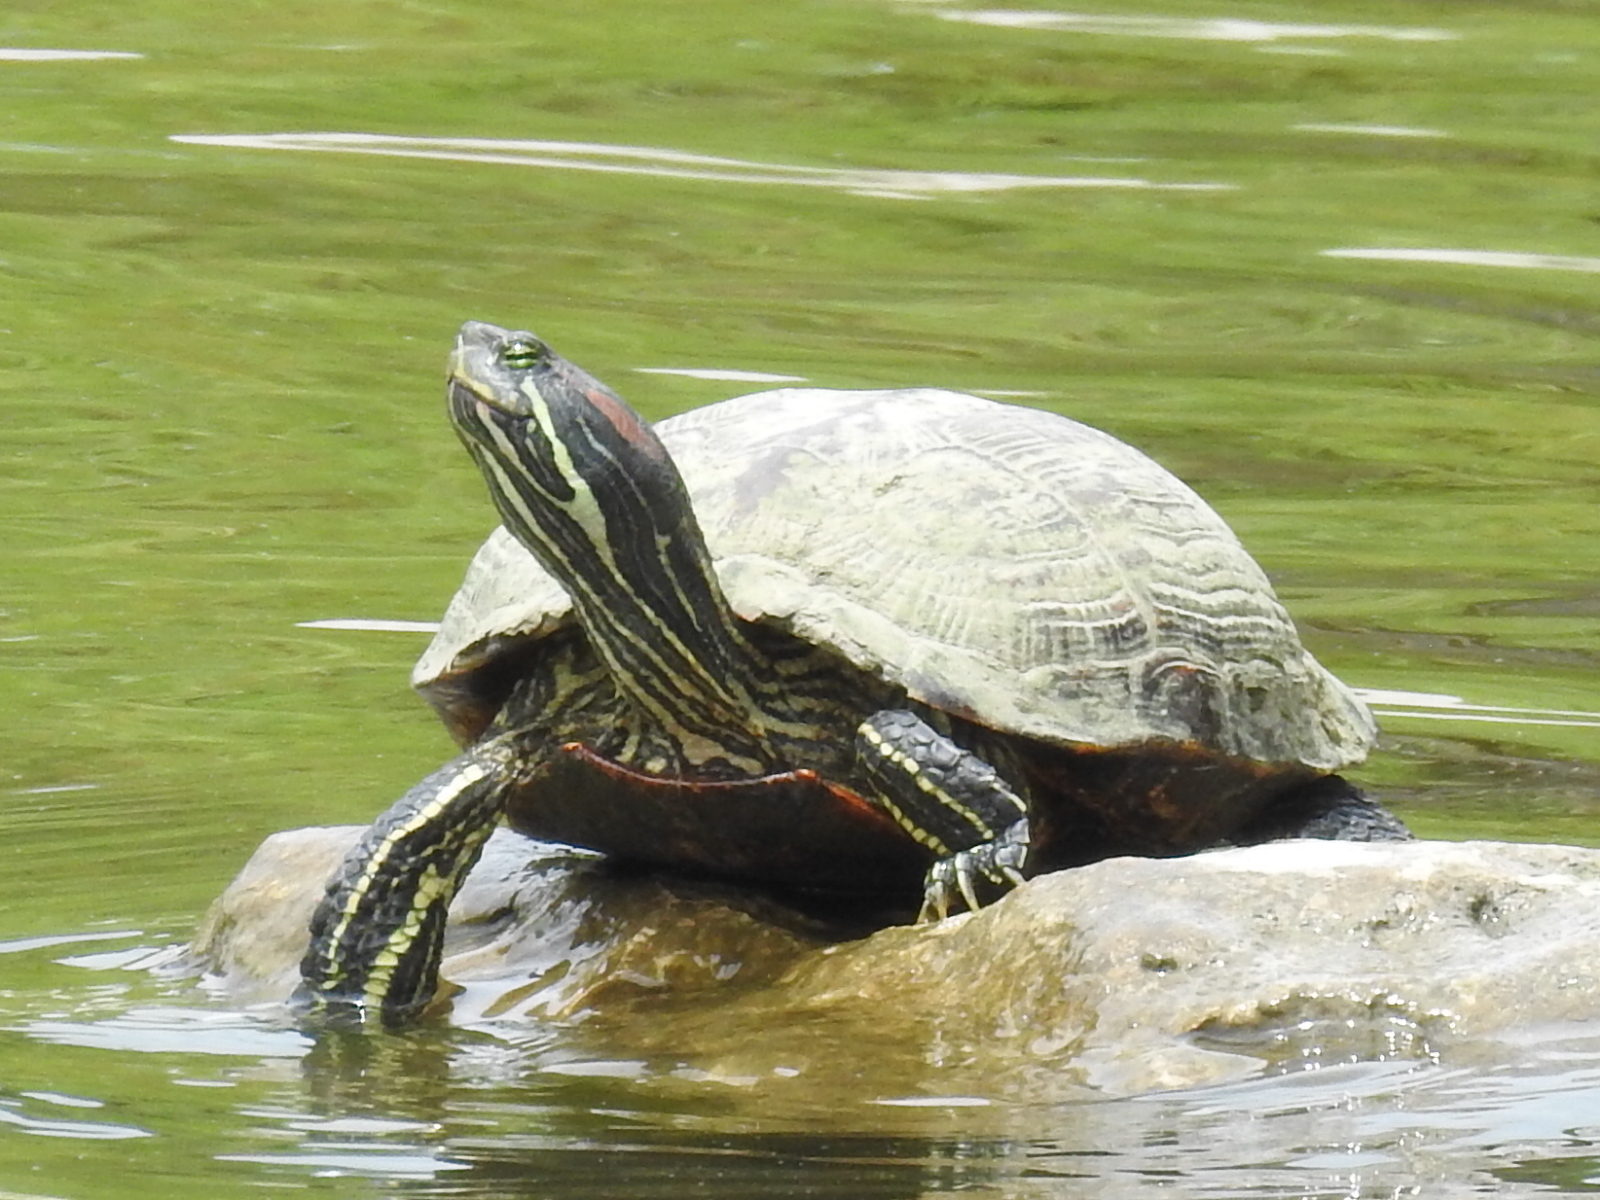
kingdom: Animalia
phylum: Chordata
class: Testudines
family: Emydidae
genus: Trachemys
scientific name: Trachemys scripta
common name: Slider
